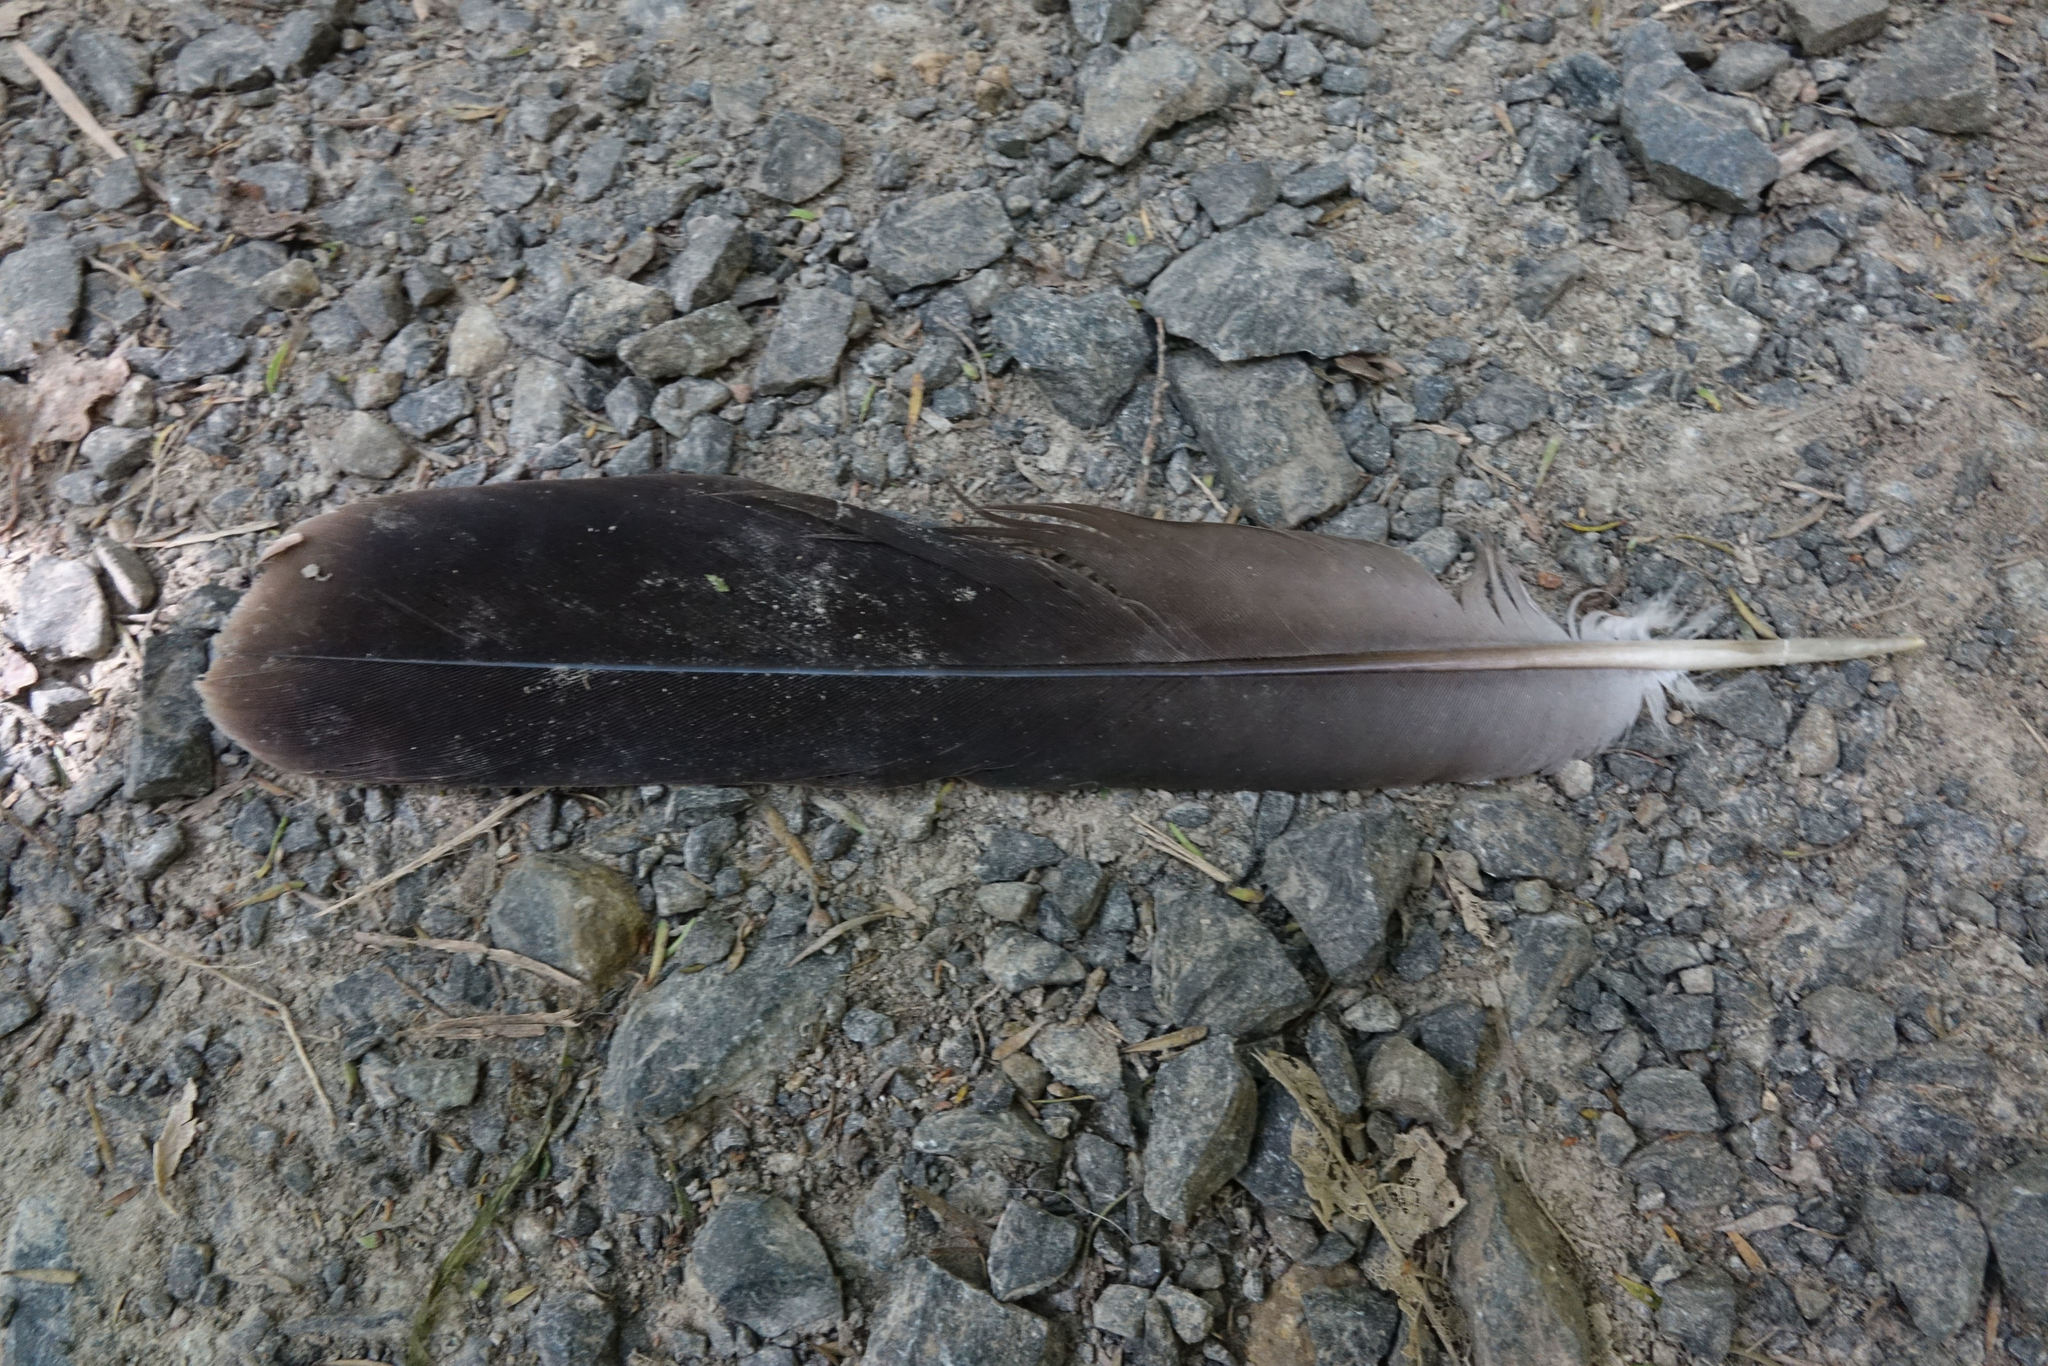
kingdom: Animalia
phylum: Chordata
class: Aves
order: Columbiformes
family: Columbidae
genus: Hemiphaga
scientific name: Hemiphaga novaeseelandiae
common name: New zealand pigeon
